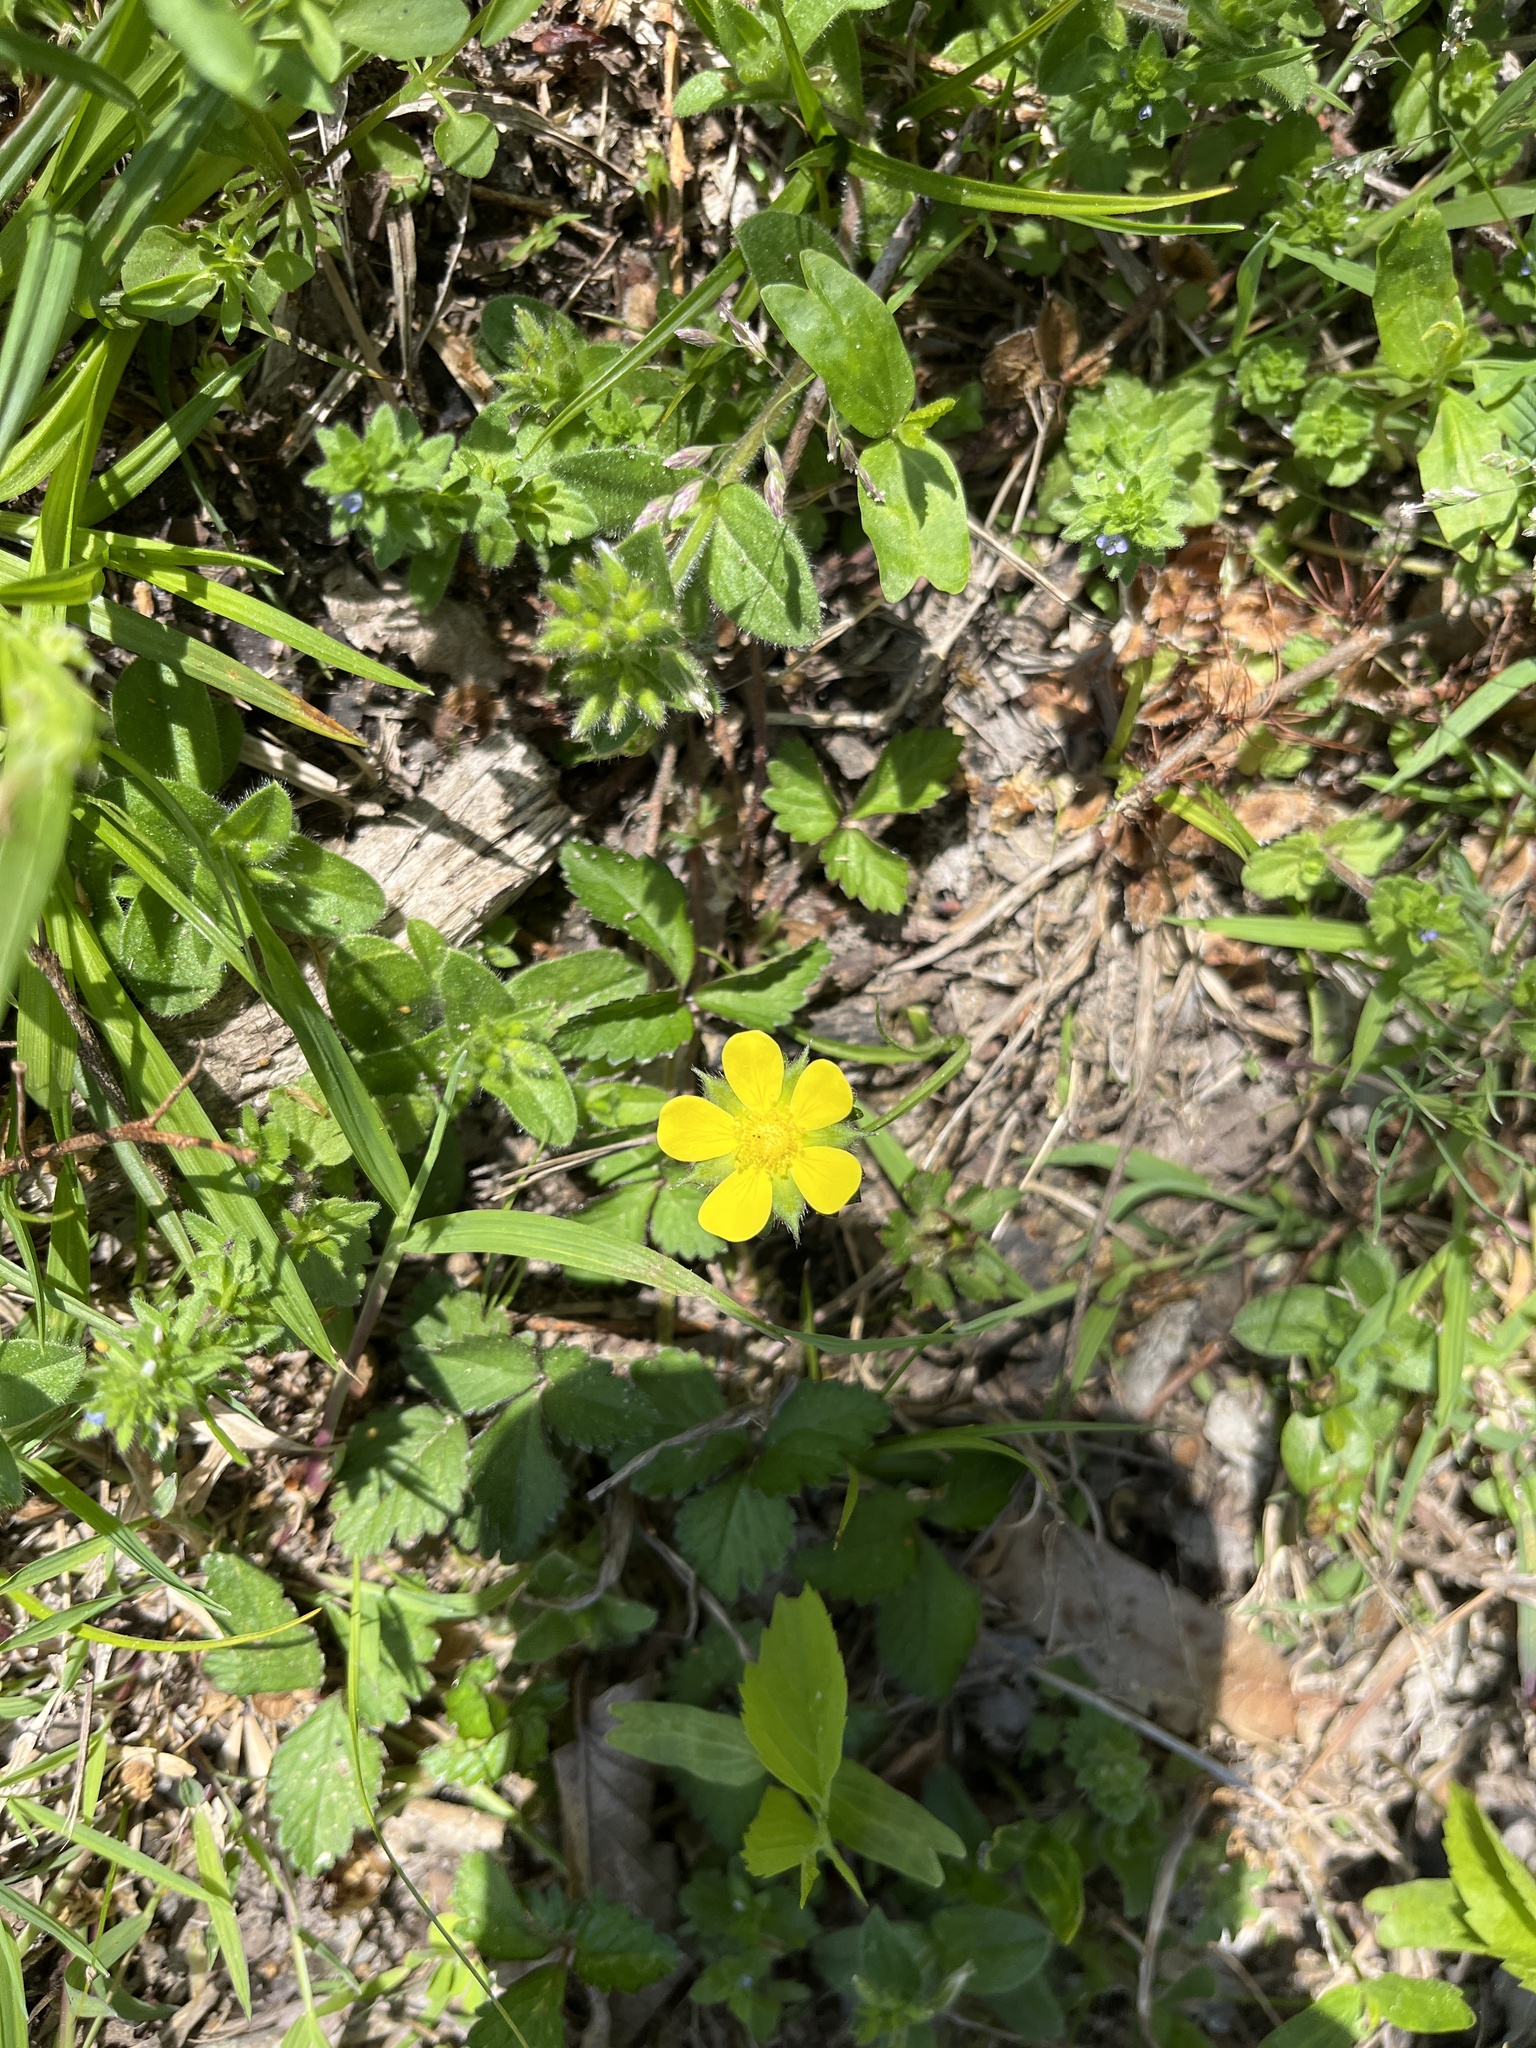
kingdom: Plantae
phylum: Tracheophyta
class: Magnoliopsida
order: Rosales
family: Rosaceae
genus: Potentilla
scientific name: Potentilla indica
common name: Yellow-flowered strawberry
